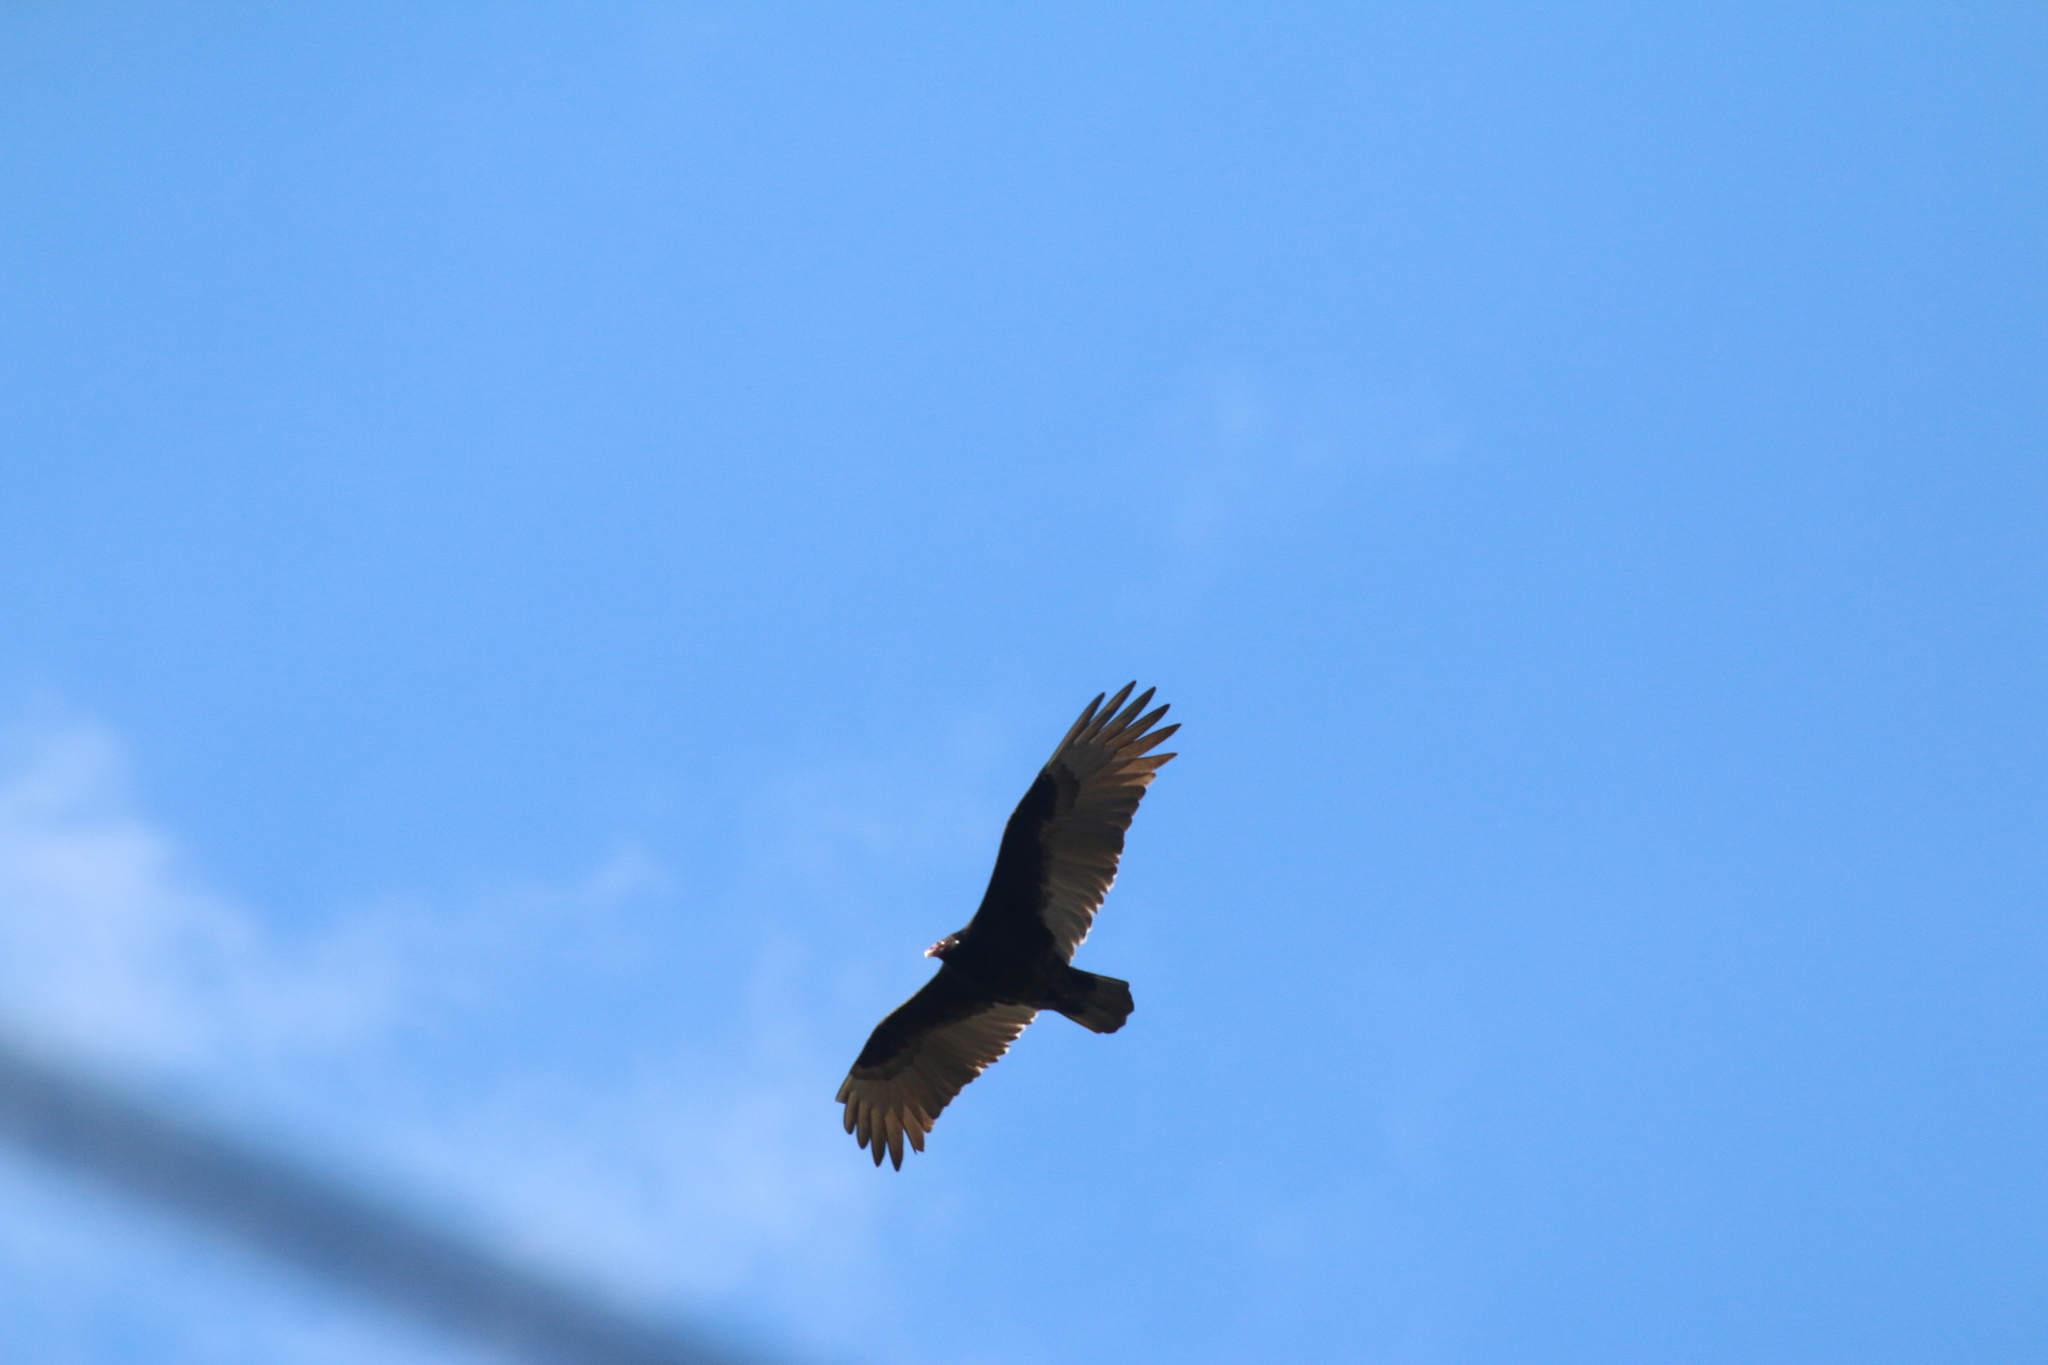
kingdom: Animalia
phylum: Chordata
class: Aves
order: Accipitriformes
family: Cathartidae
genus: Cathartes
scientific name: Cathartes aura
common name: Turkey vulture
